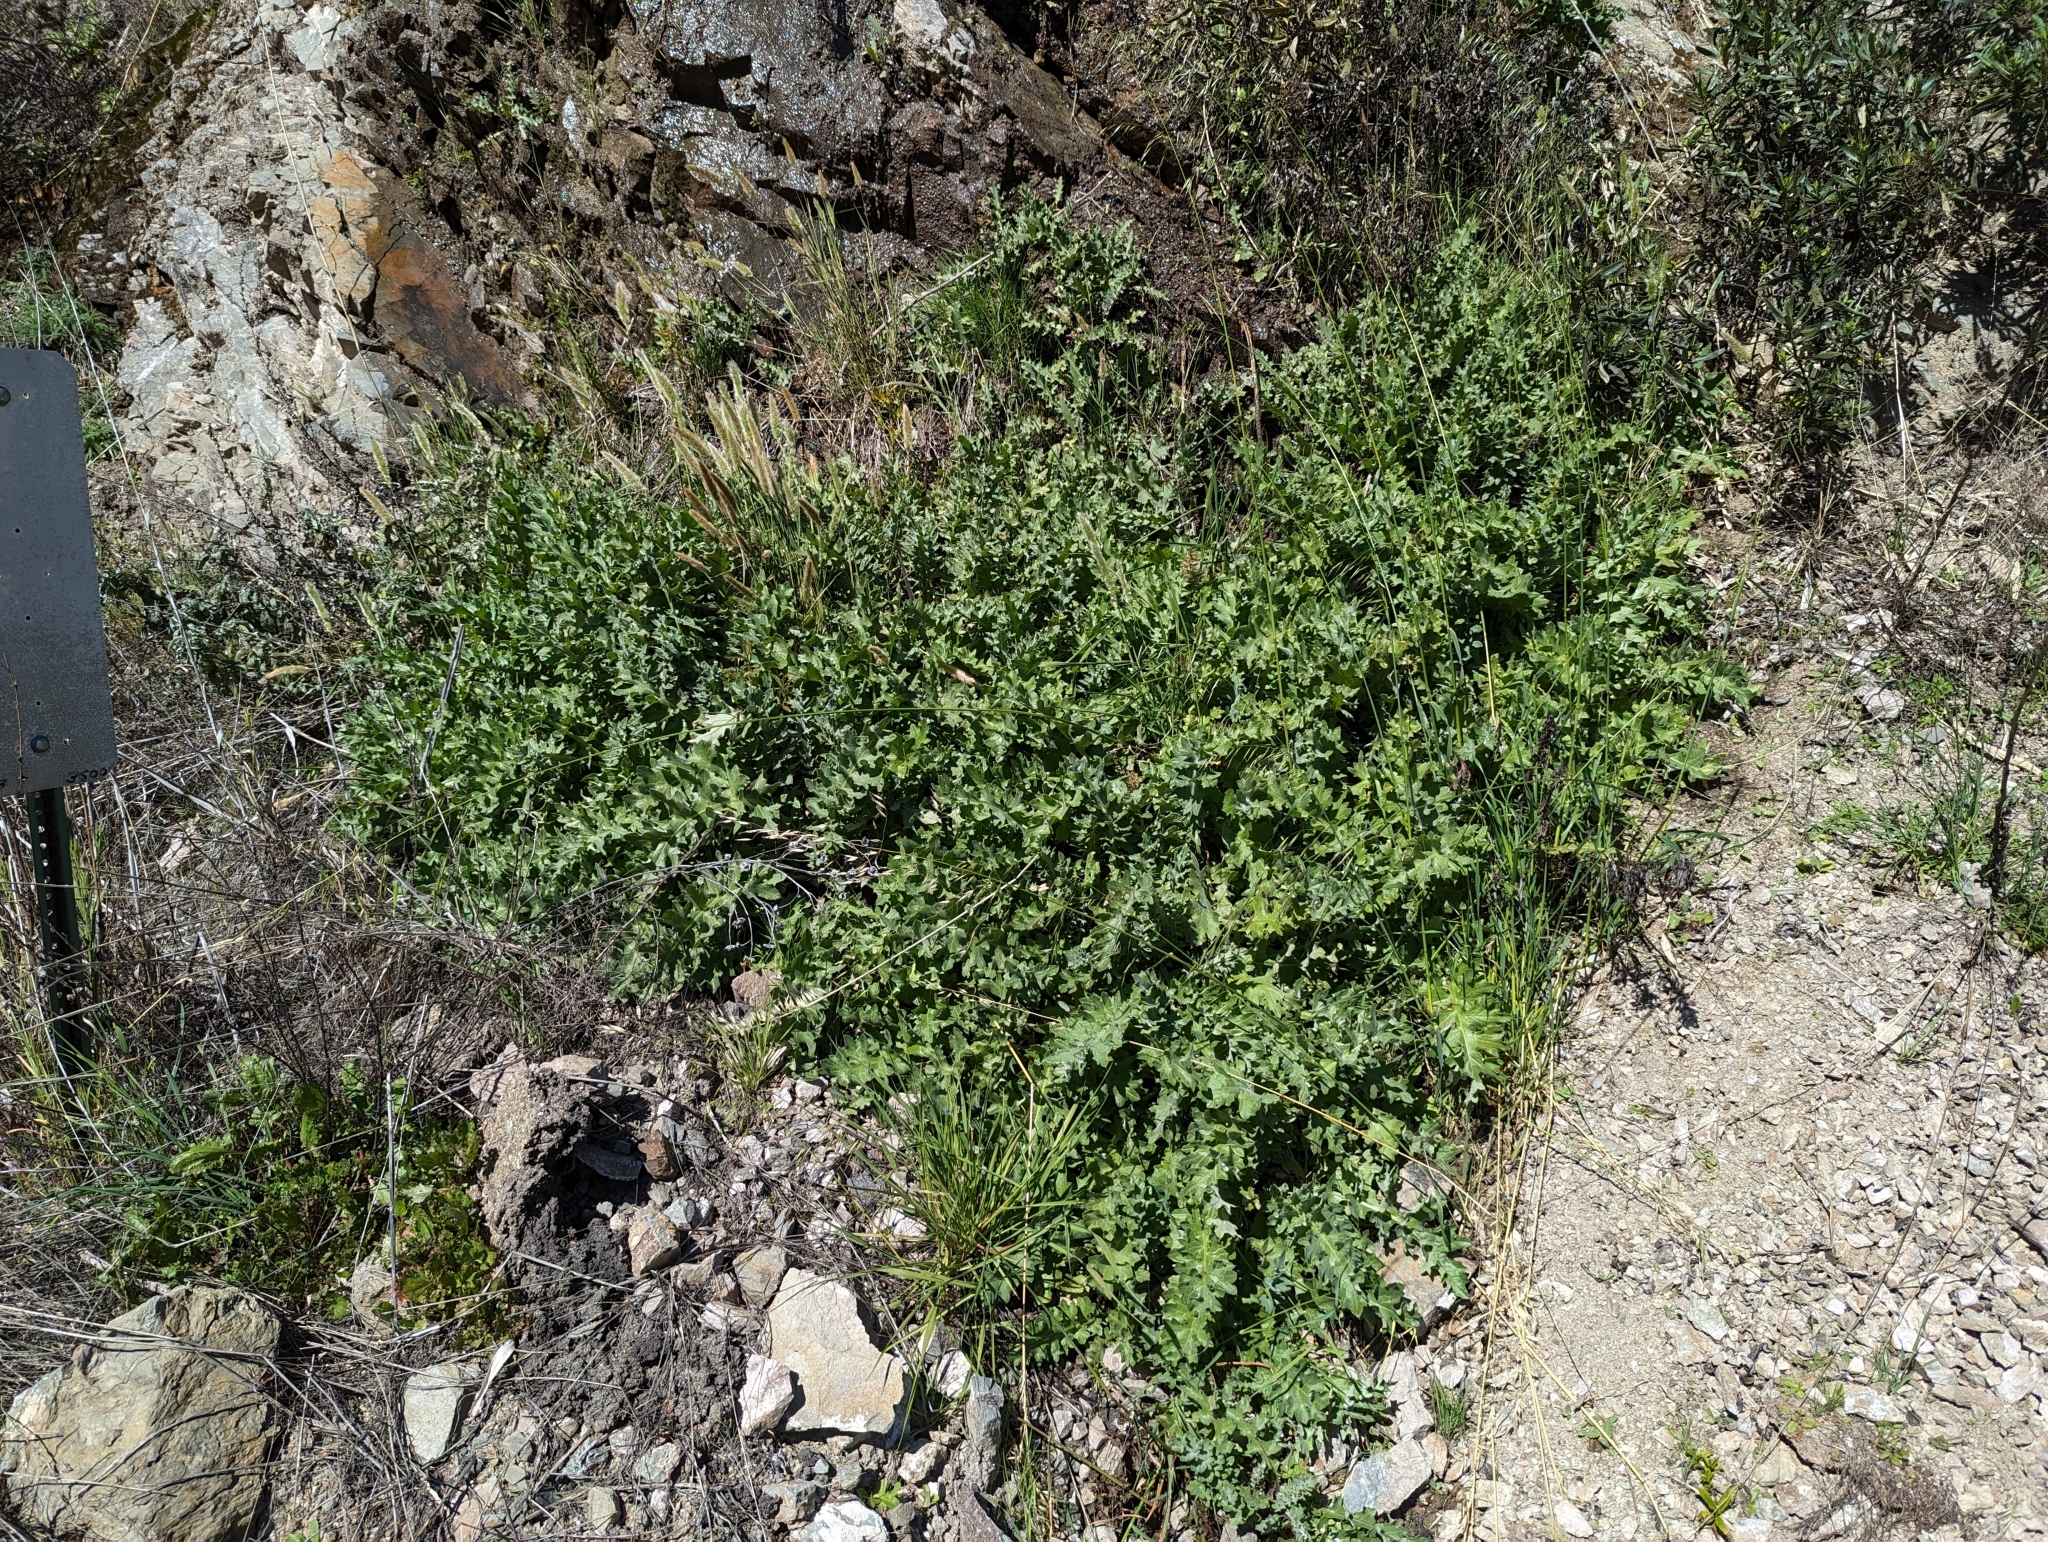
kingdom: Plantae
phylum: Tracheophyta
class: Magnoliopsida
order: Asterales
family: Asteraceae
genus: Cirsium
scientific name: Cirsium fontinale
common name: Fountain thistle
